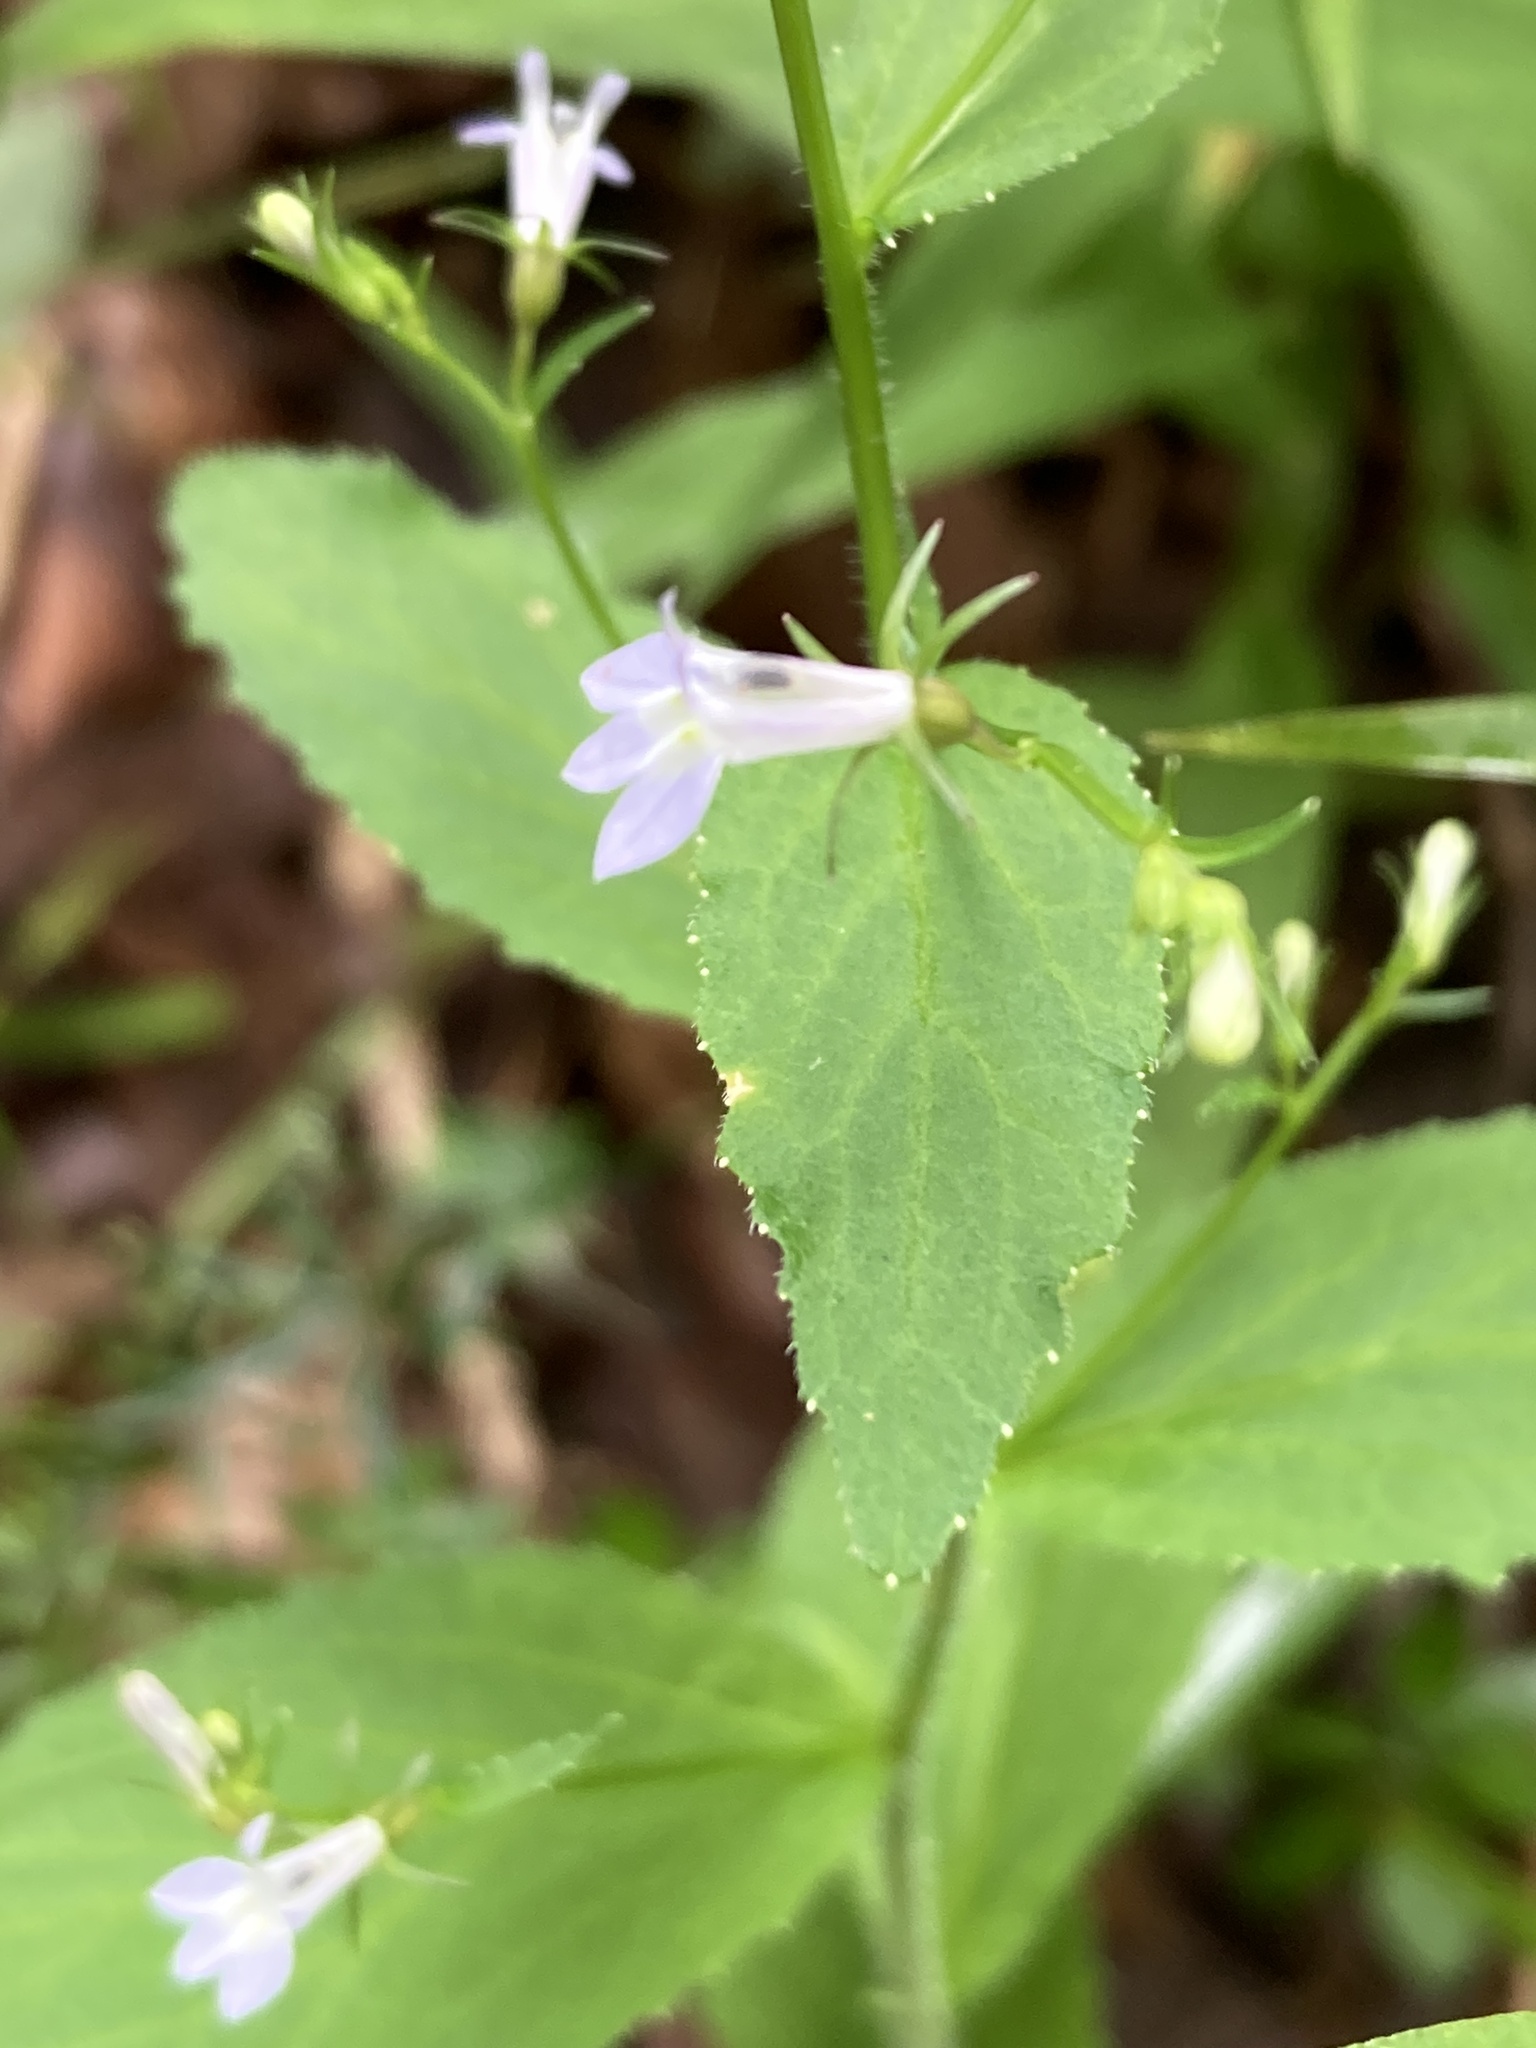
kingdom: Plantae
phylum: Tracheophyta
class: Magnoliopsida
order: Asterales
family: Campanulaceae
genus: Lobelia
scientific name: Lobelia inflata
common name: Indian tobacco
